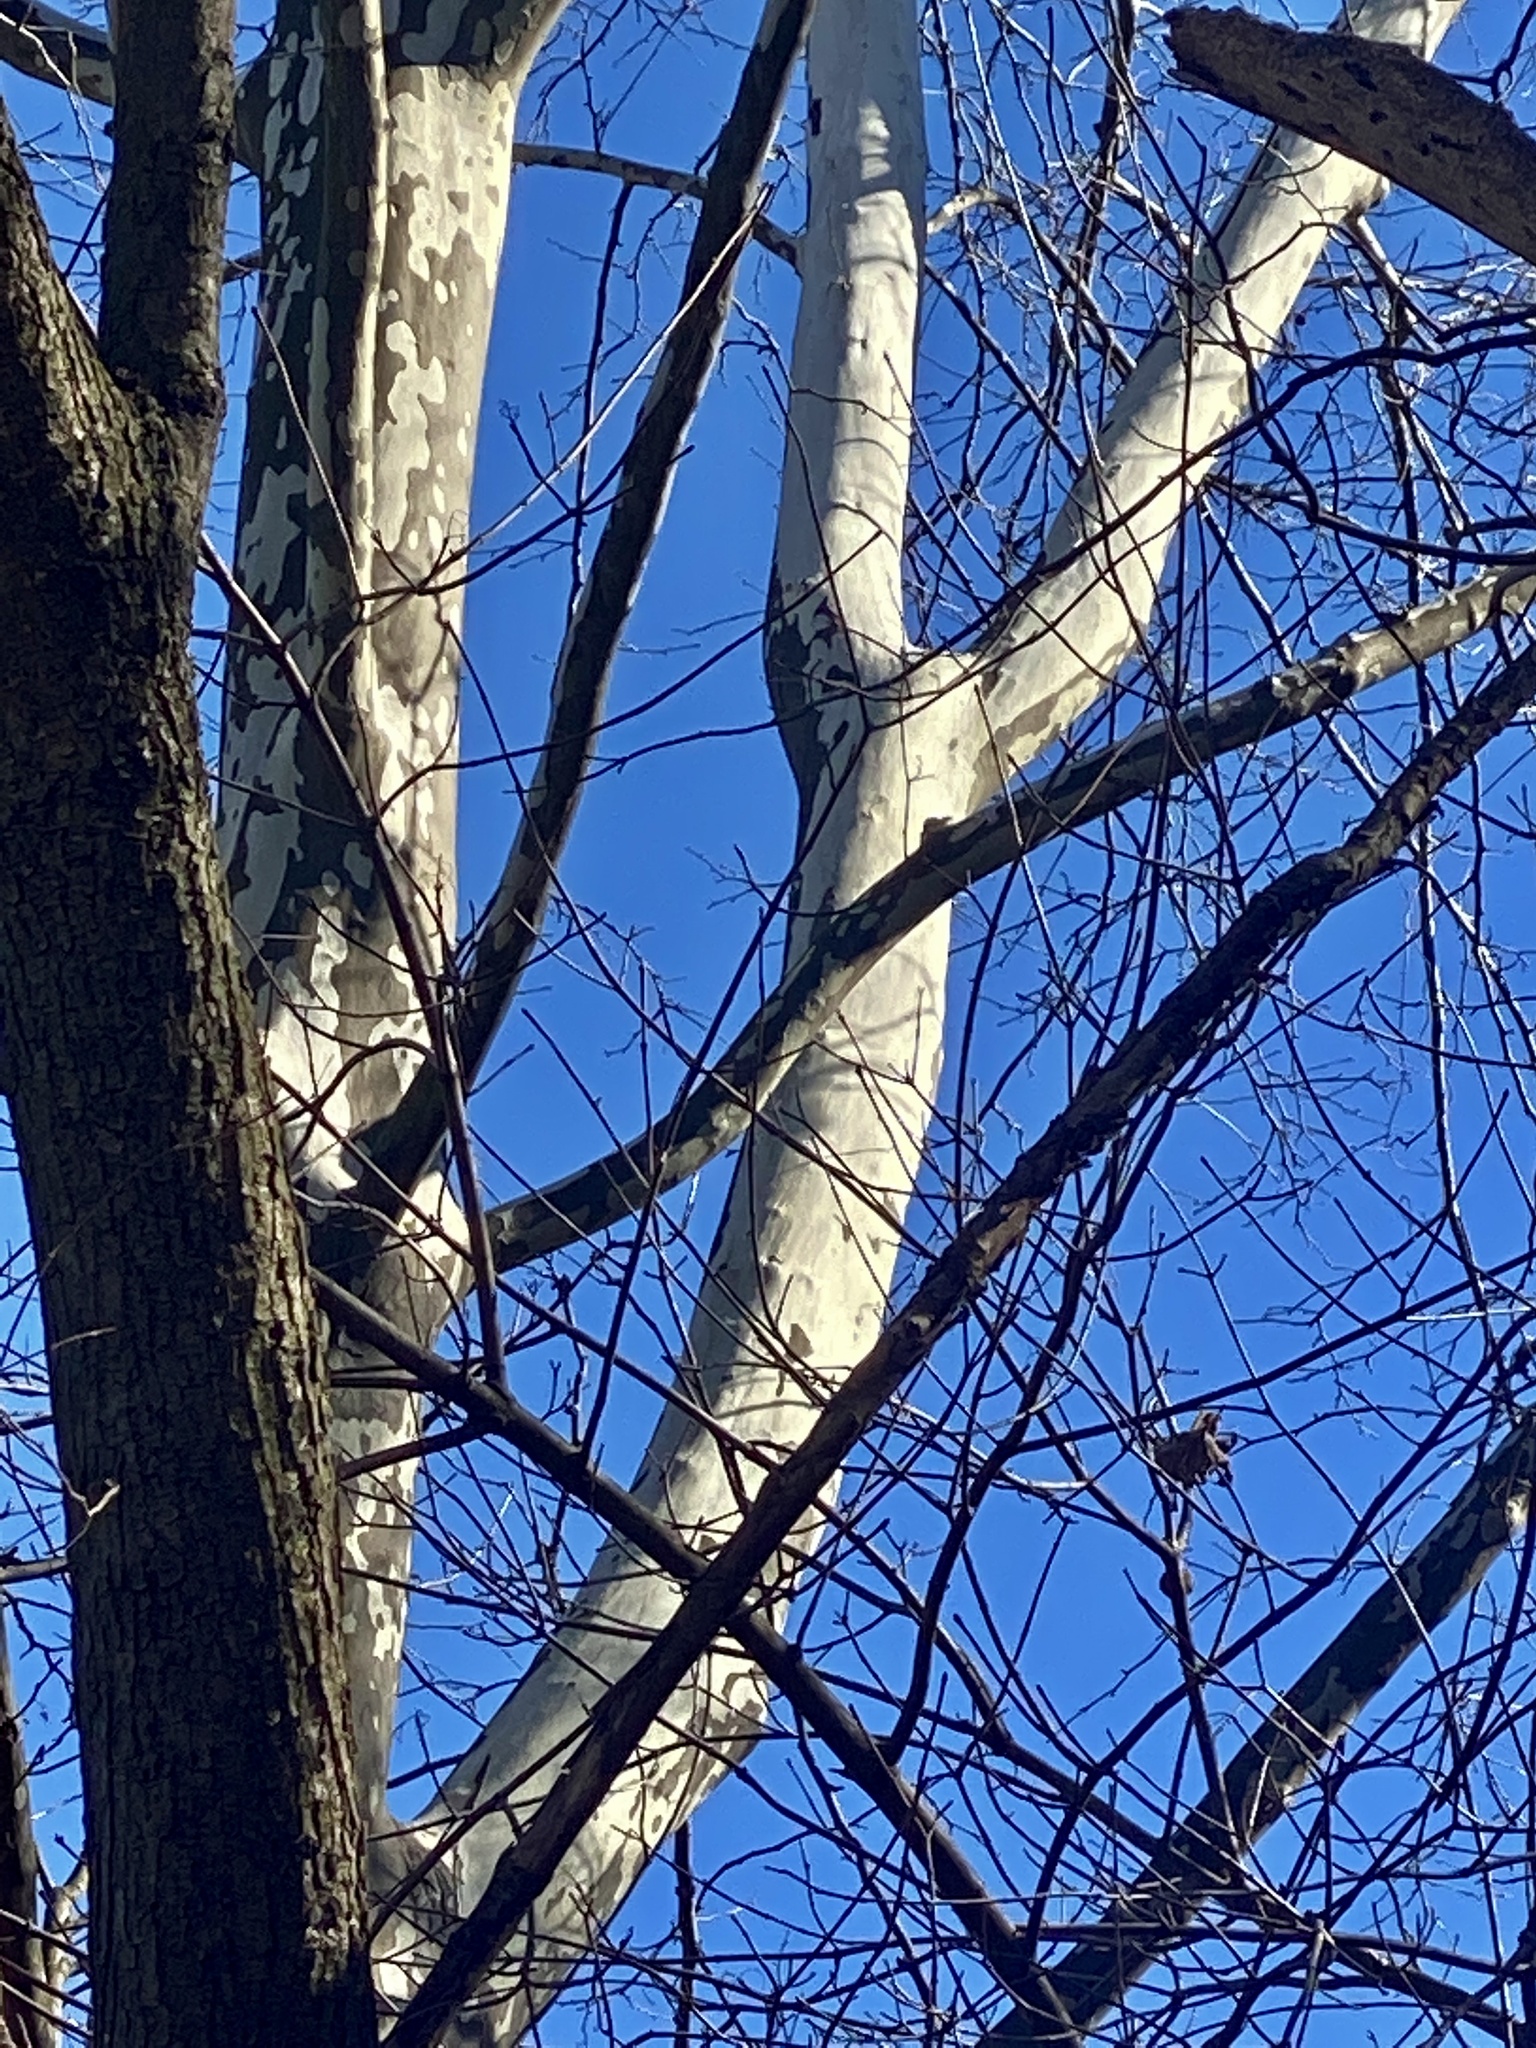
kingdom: Plantae
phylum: Tracheophyta
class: Magnoliopsida
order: Proteales
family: Platanaceae
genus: Platanus
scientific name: Platanus occidentalis
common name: American sycamore
